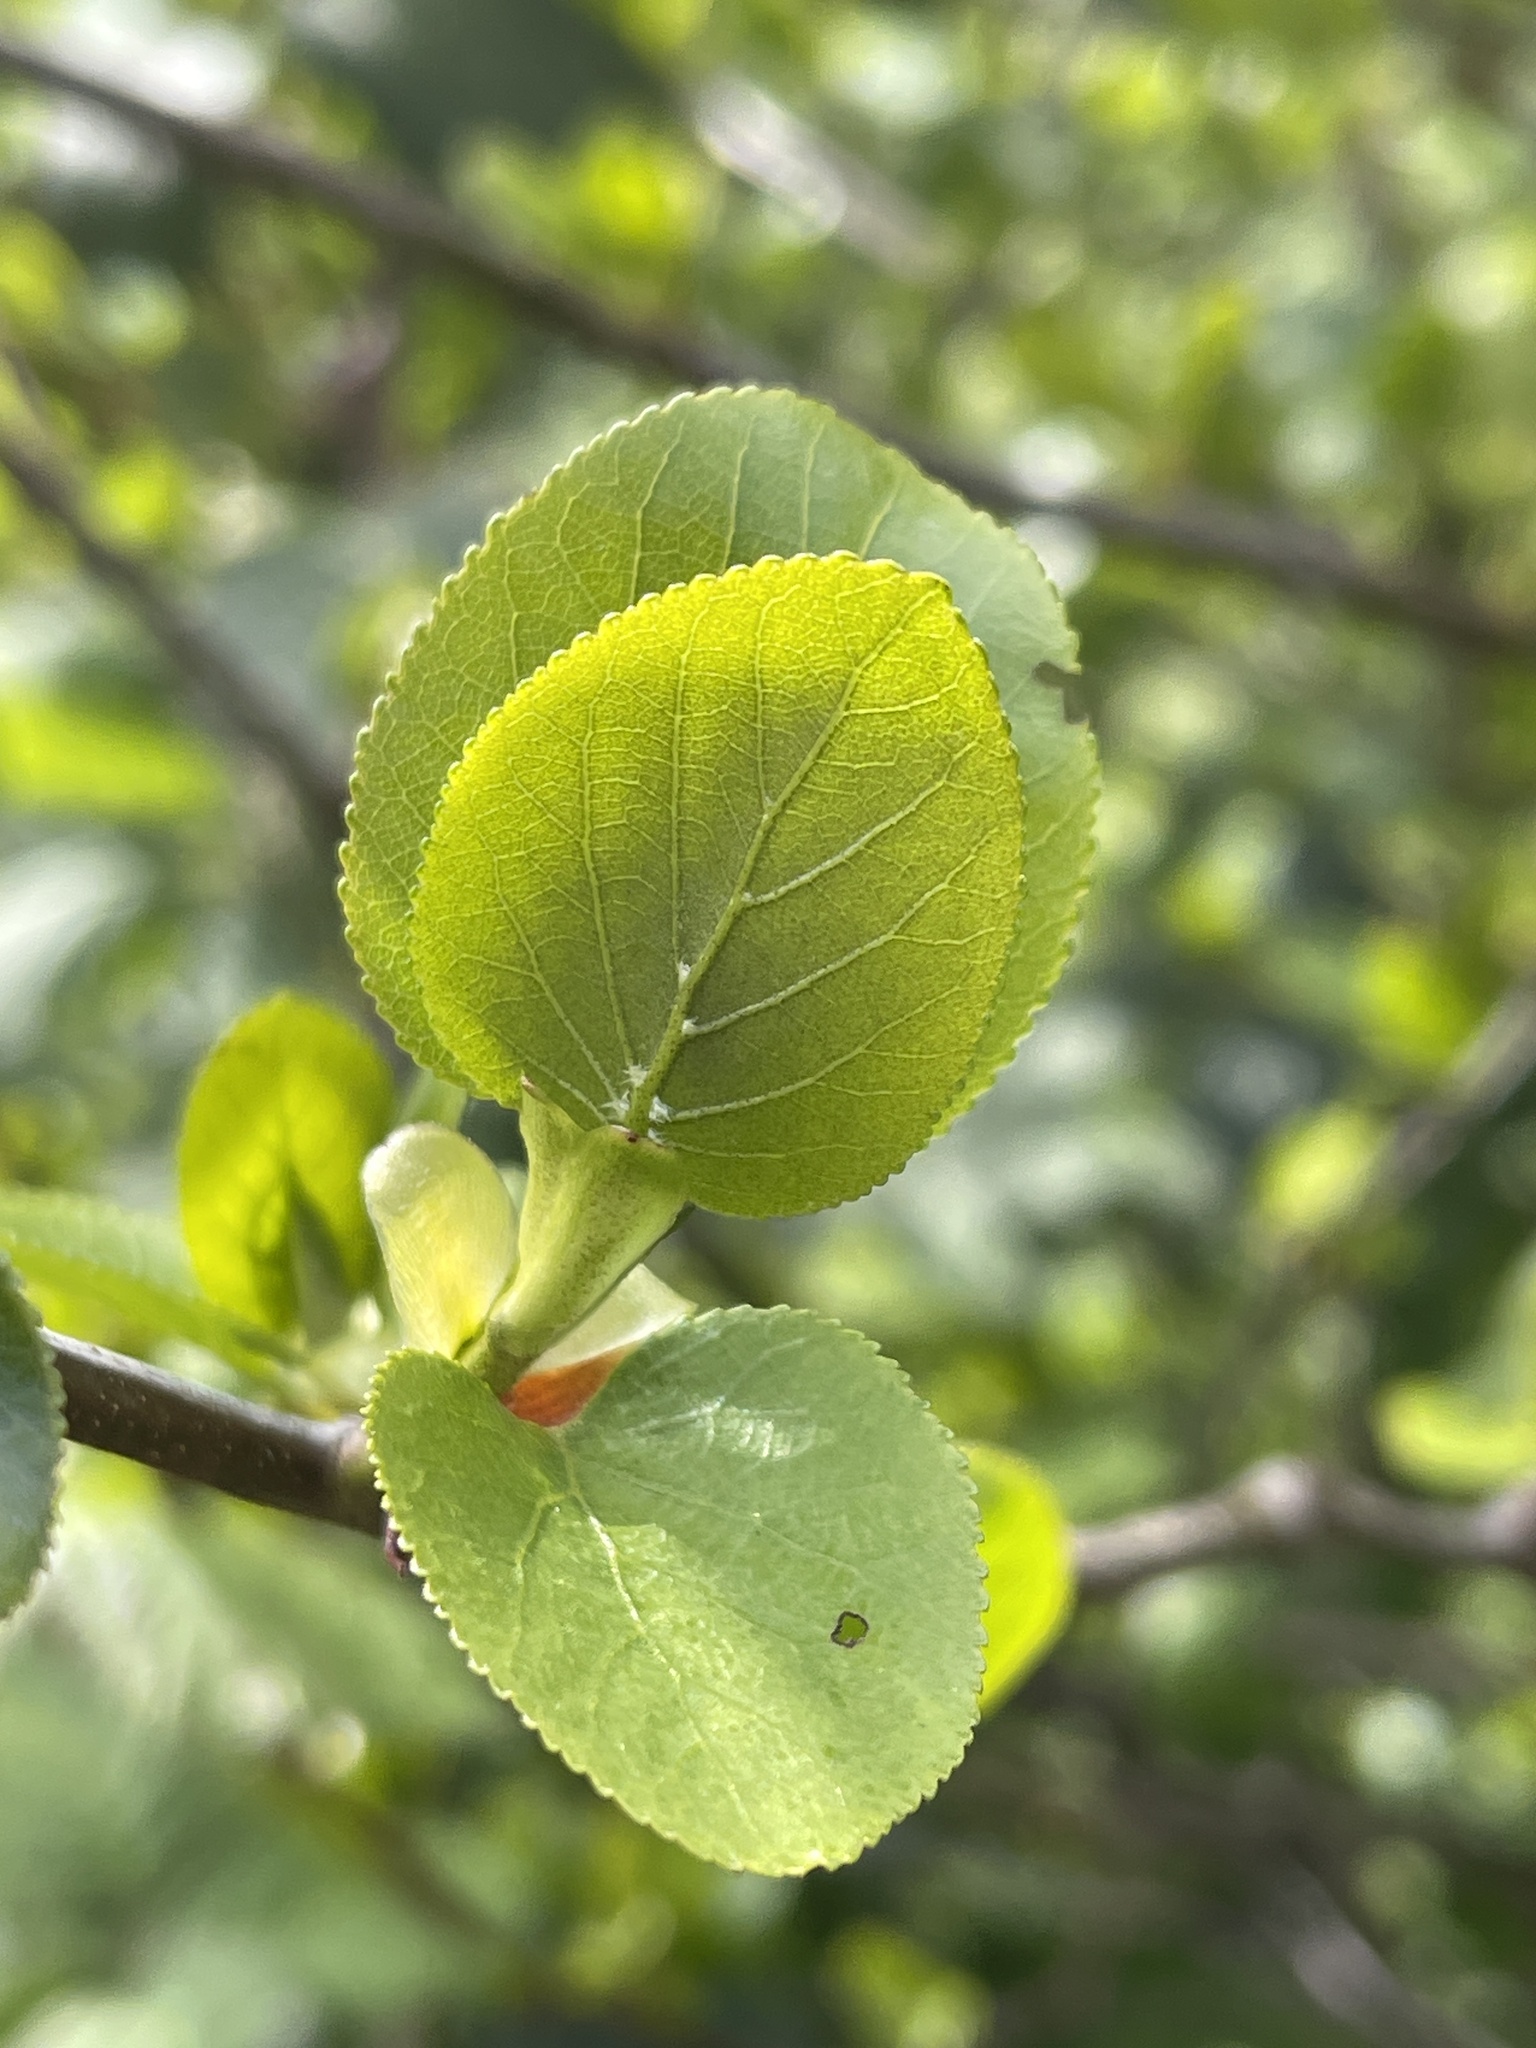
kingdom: Plantae
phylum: Tracheophyta
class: Magnoliopsida
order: Fagales
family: Betulaceae
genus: Alnus
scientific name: Alnus cordata
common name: Italian alder
